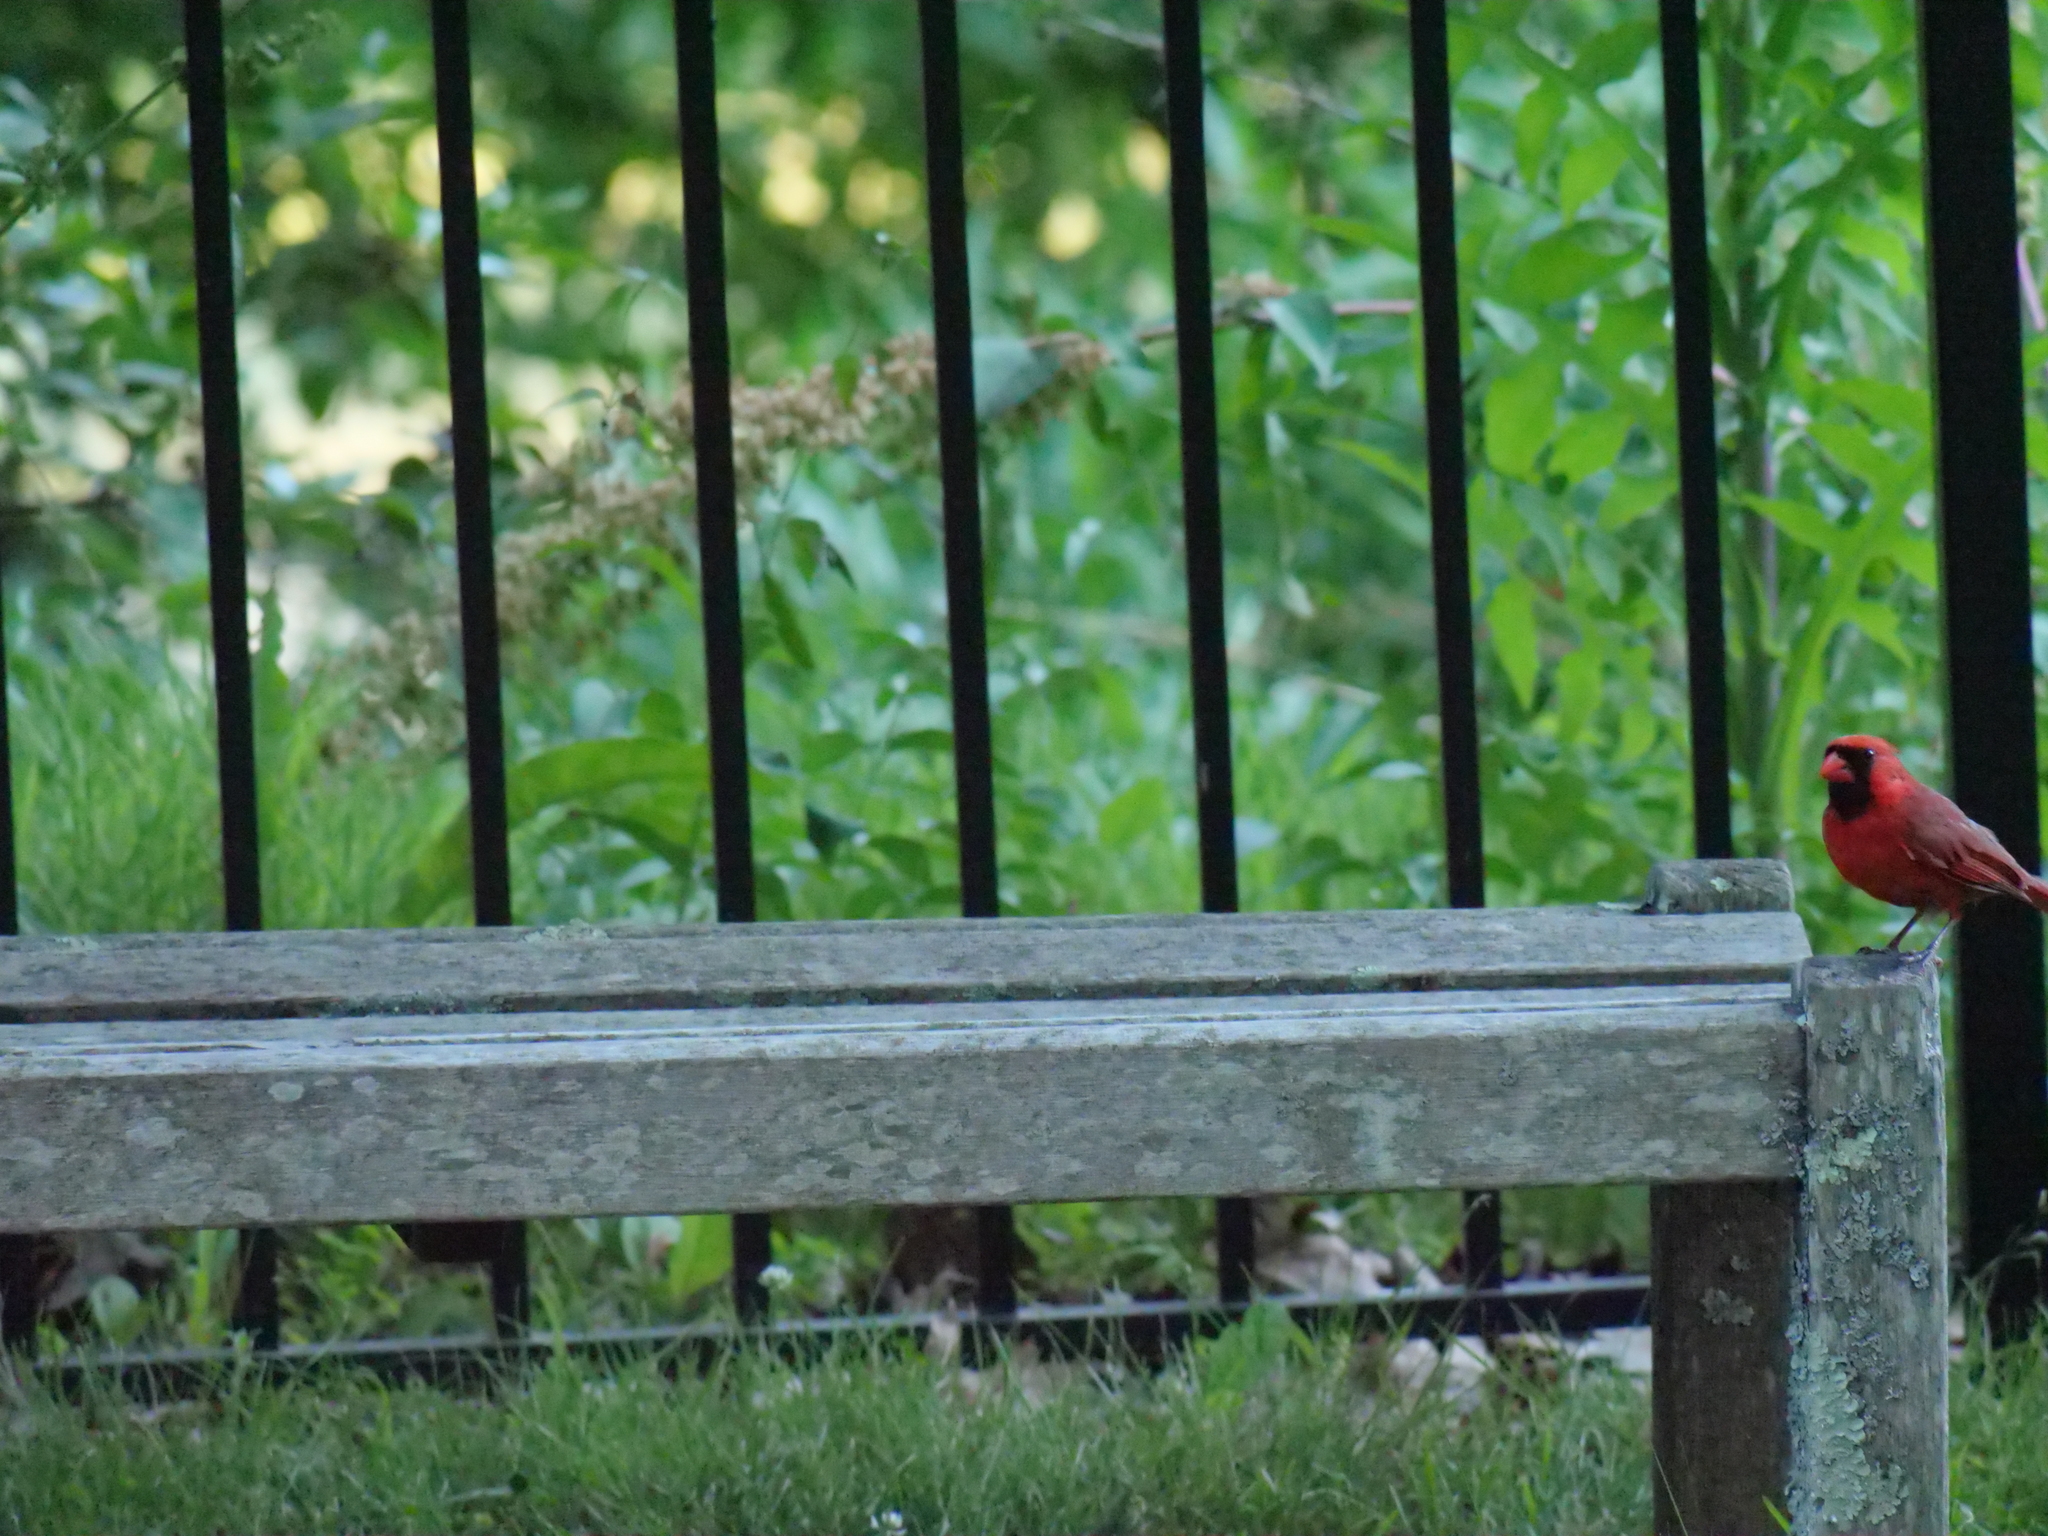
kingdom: Animalia
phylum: Chordata
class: Aves
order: Passeriformes
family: Cardinalidae
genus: Cardinalis
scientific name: Cardinalis cardinalis
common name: Northern cardinal
